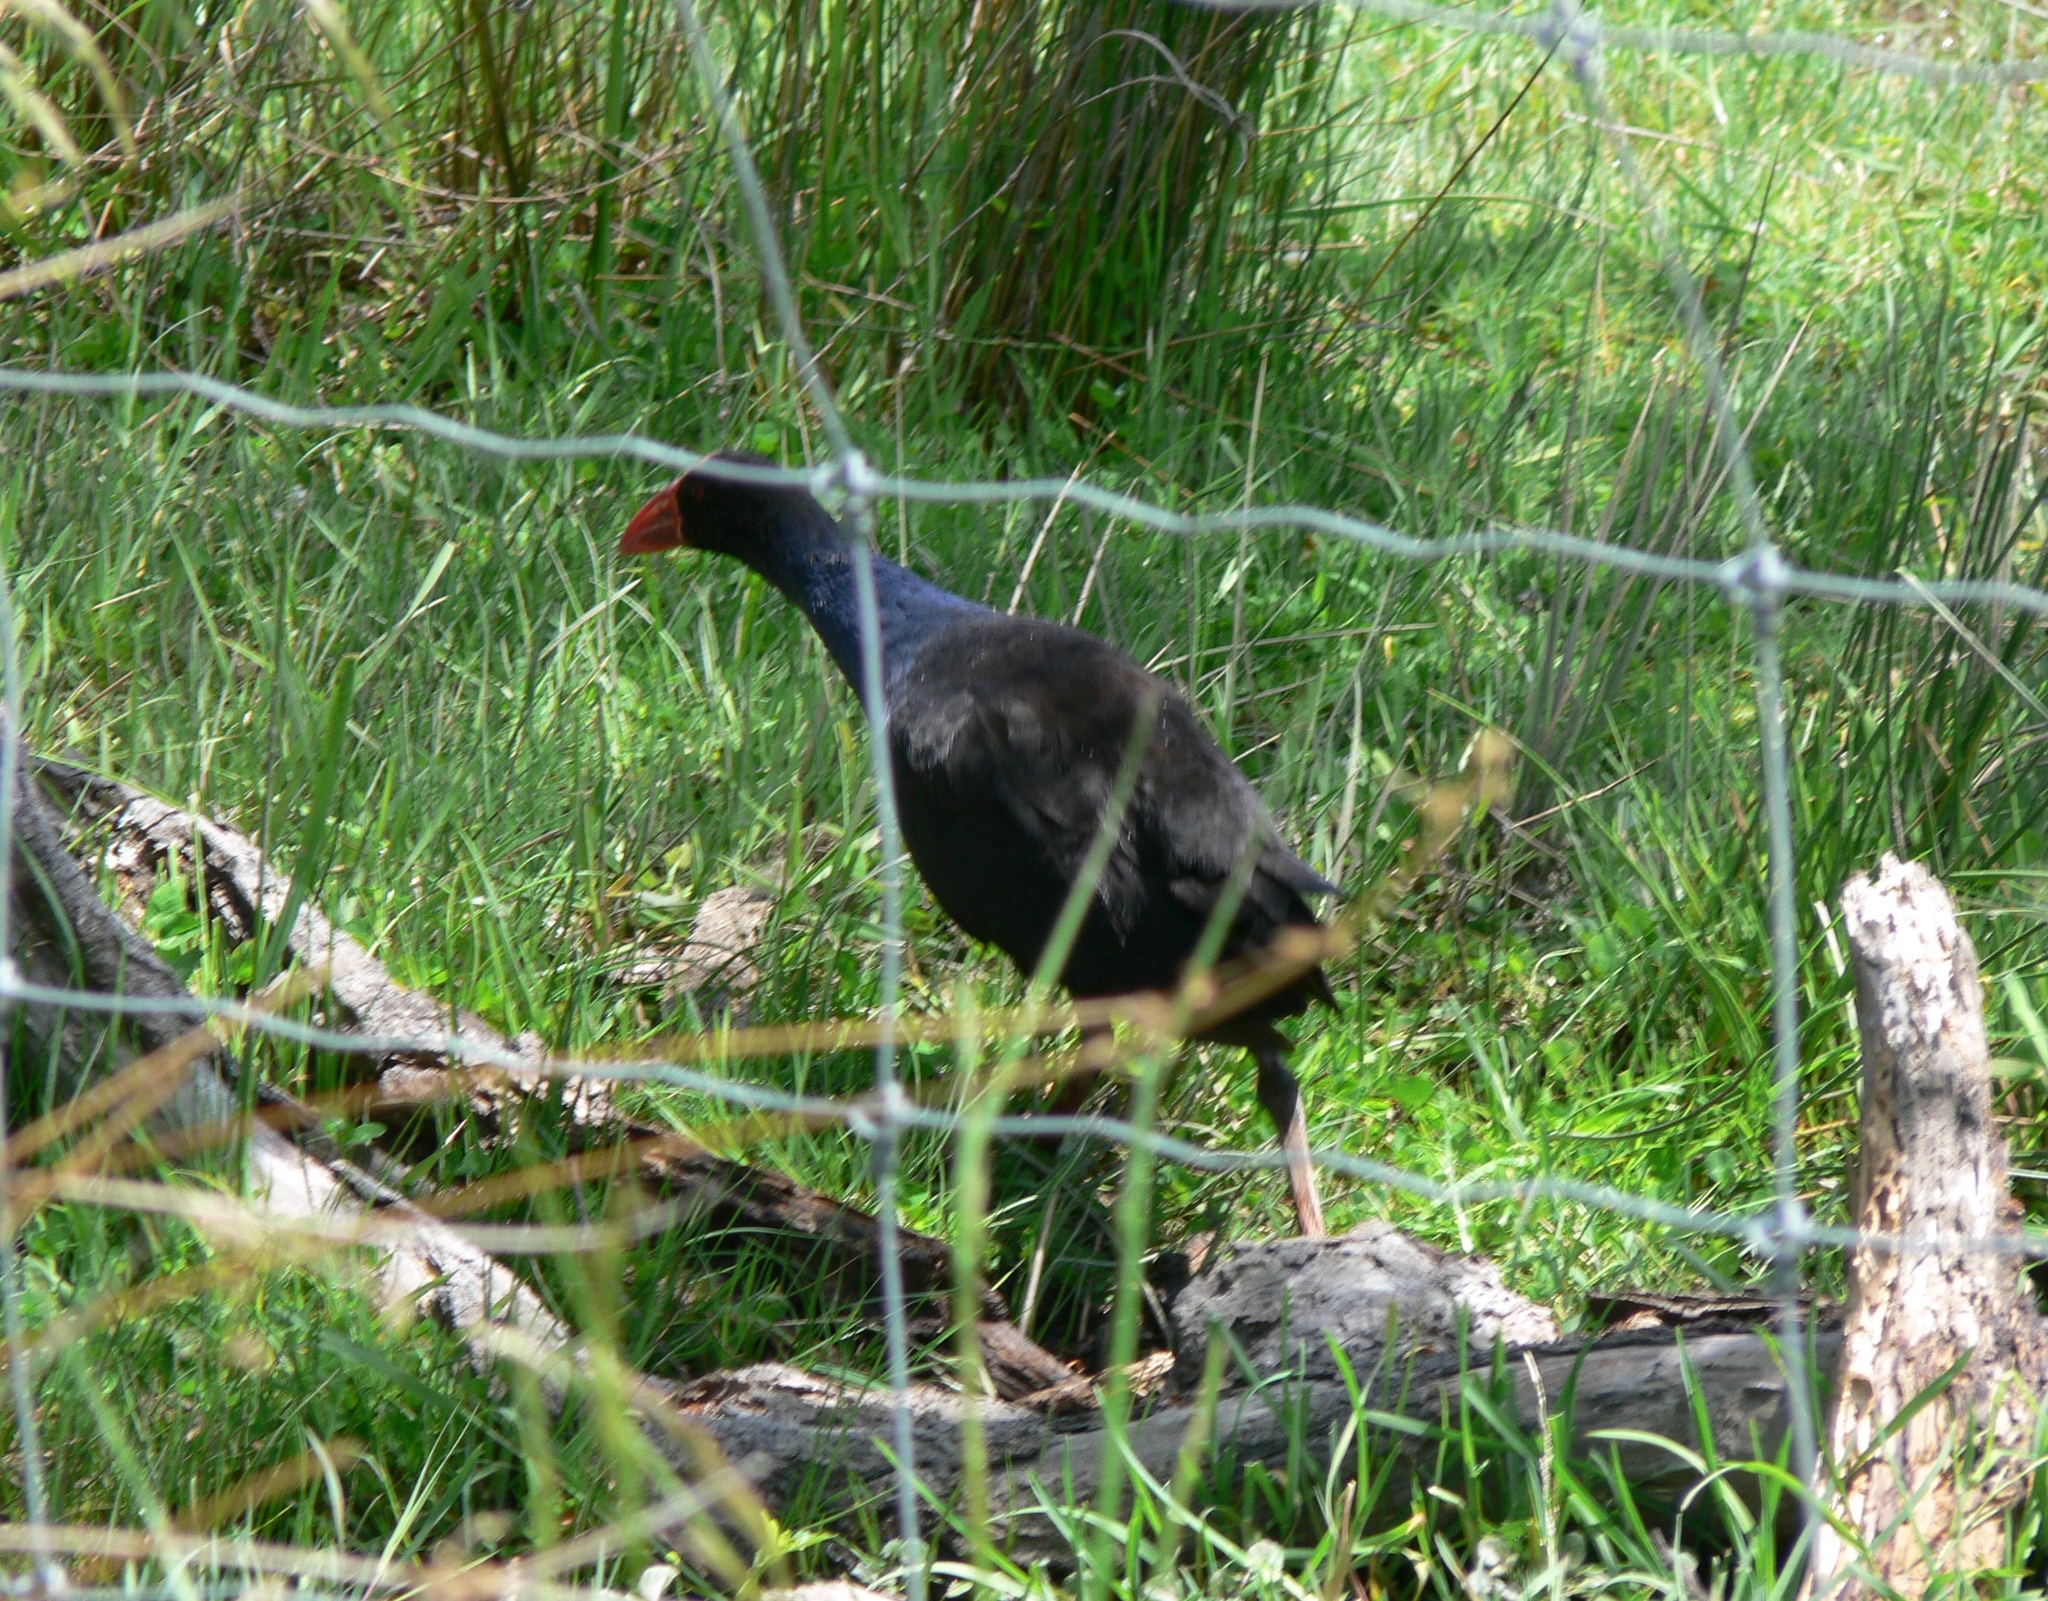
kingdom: Animalia
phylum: Chordata
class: Aves
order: Gruiformes
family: Rallidae
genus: Porphyrio
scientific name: Porphyrio melanotus
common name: Australasian swamphen
